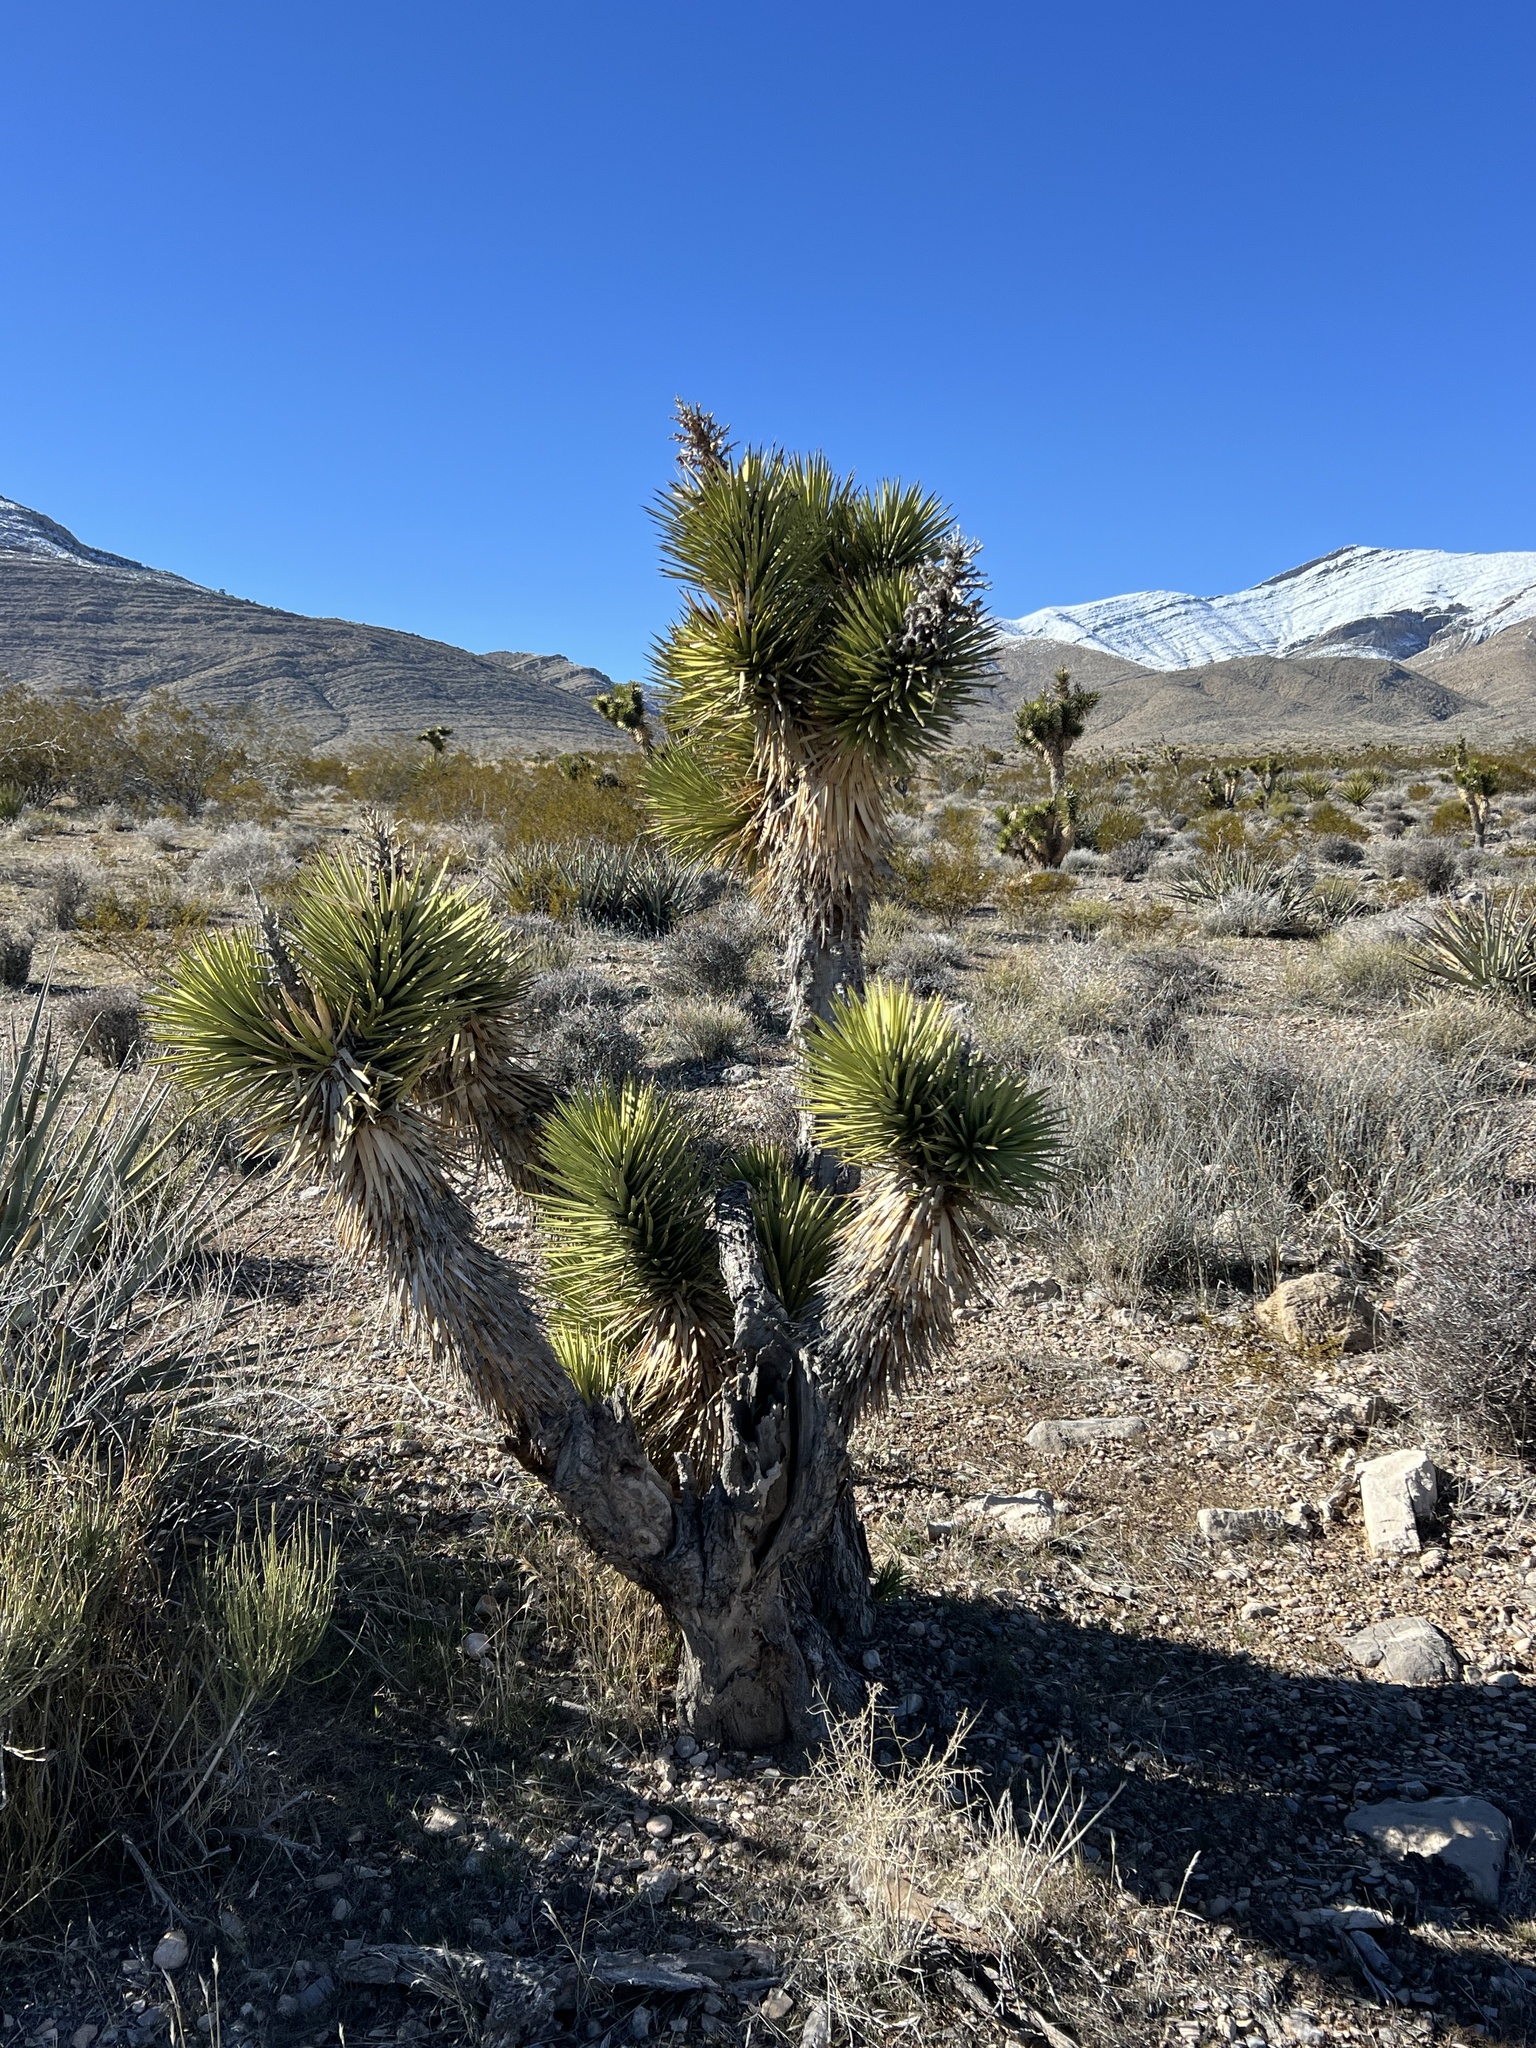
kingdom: Plantae
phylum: Tracheophyta
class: Liliopsida
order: Asparagales
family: Asparagaceae
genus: Yucca
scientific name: Yucca brevifolia
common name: Joshua tree
